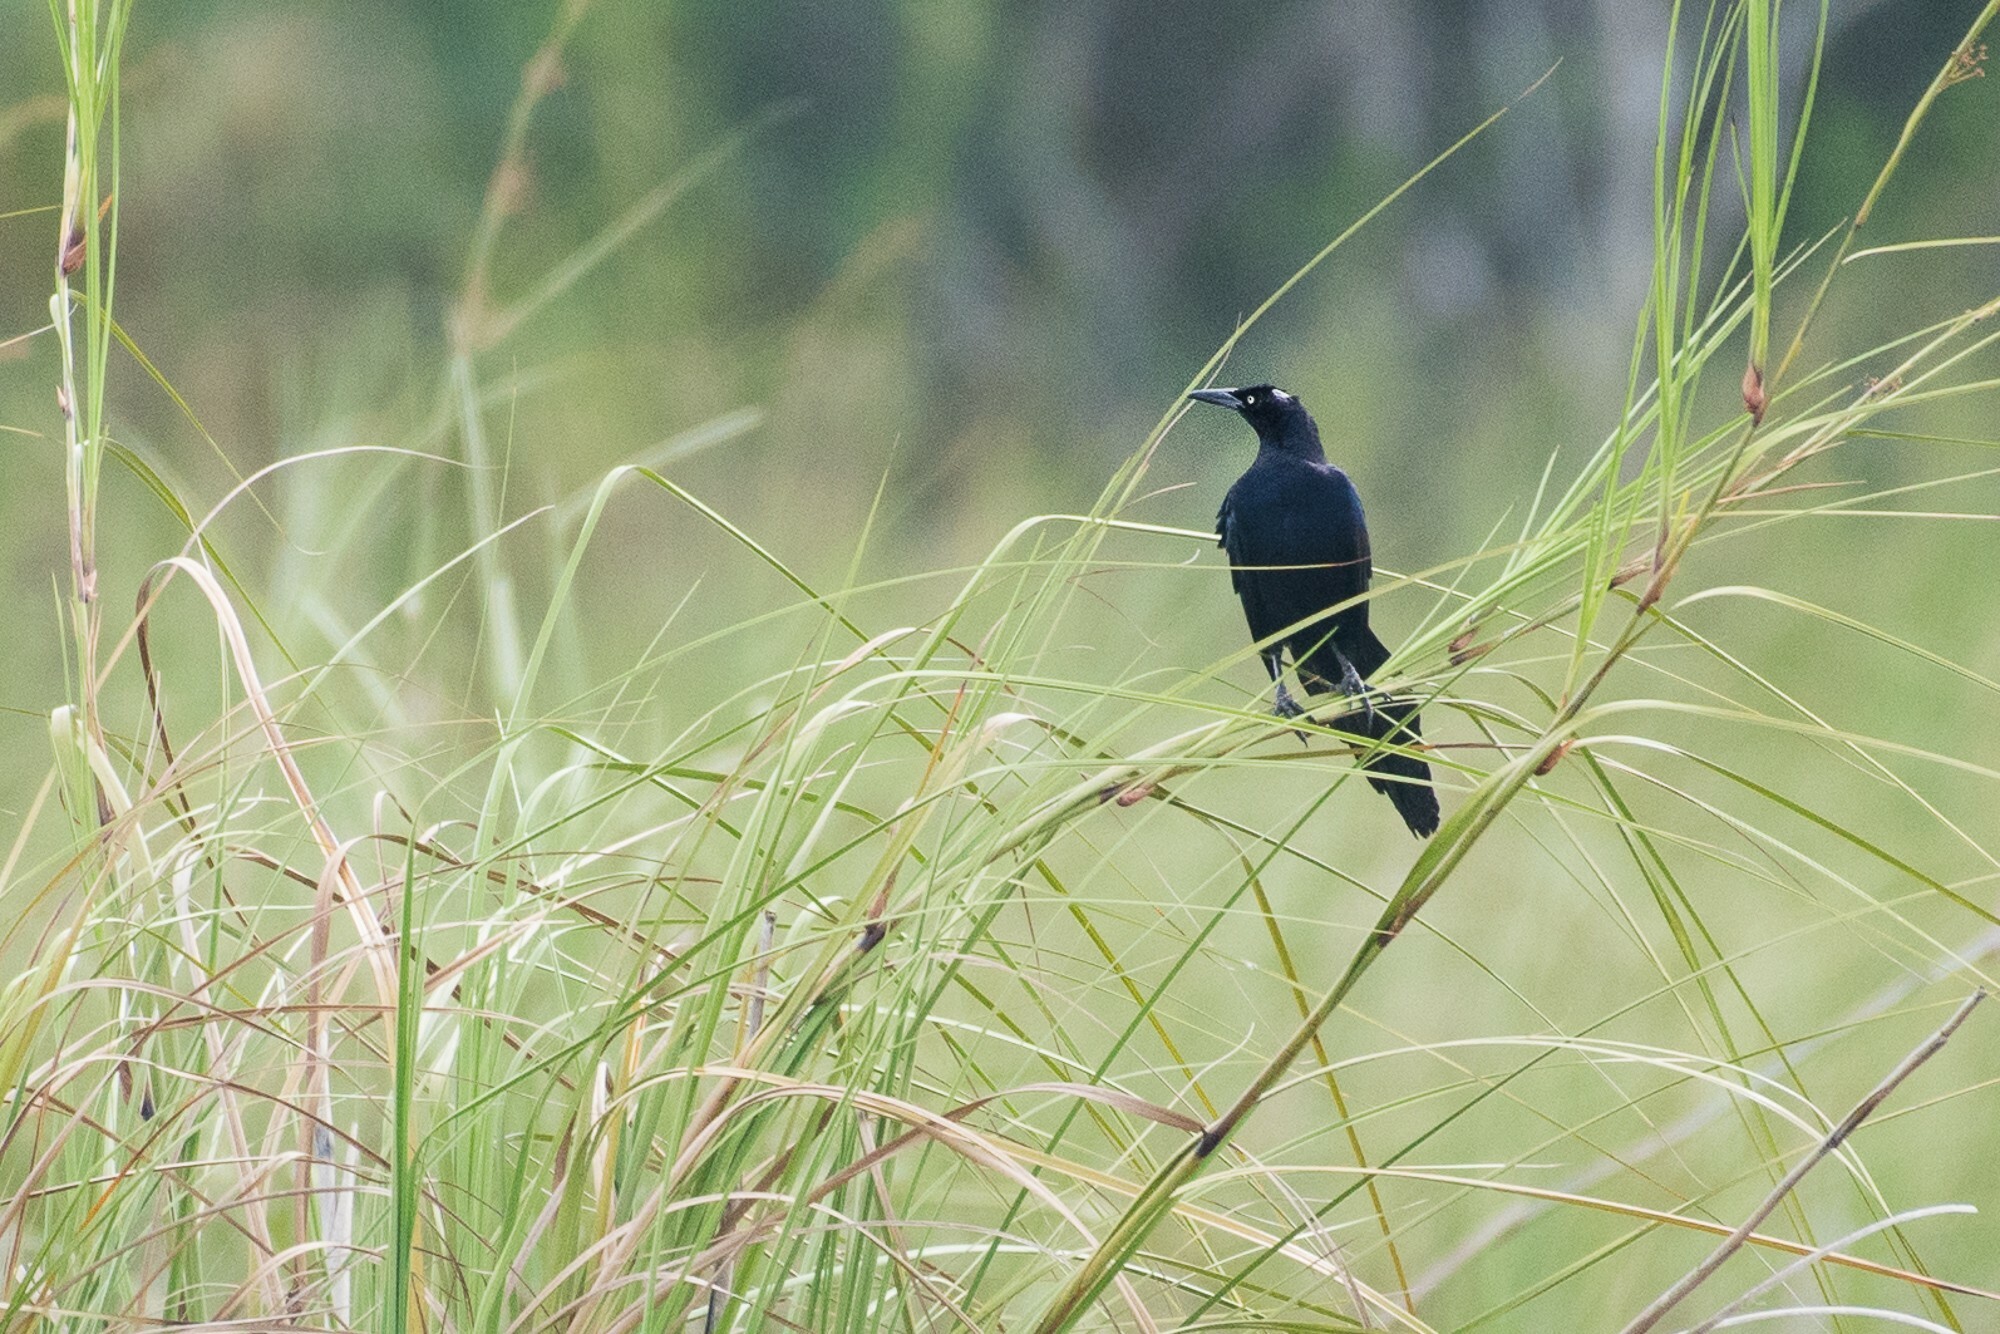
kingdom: Animalia
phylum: Chordata
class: Aves
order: Passeriformes
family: Icteridae
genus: Quiscalus
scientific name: Quiscalus mexicanus
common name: Great-tailed grackle
